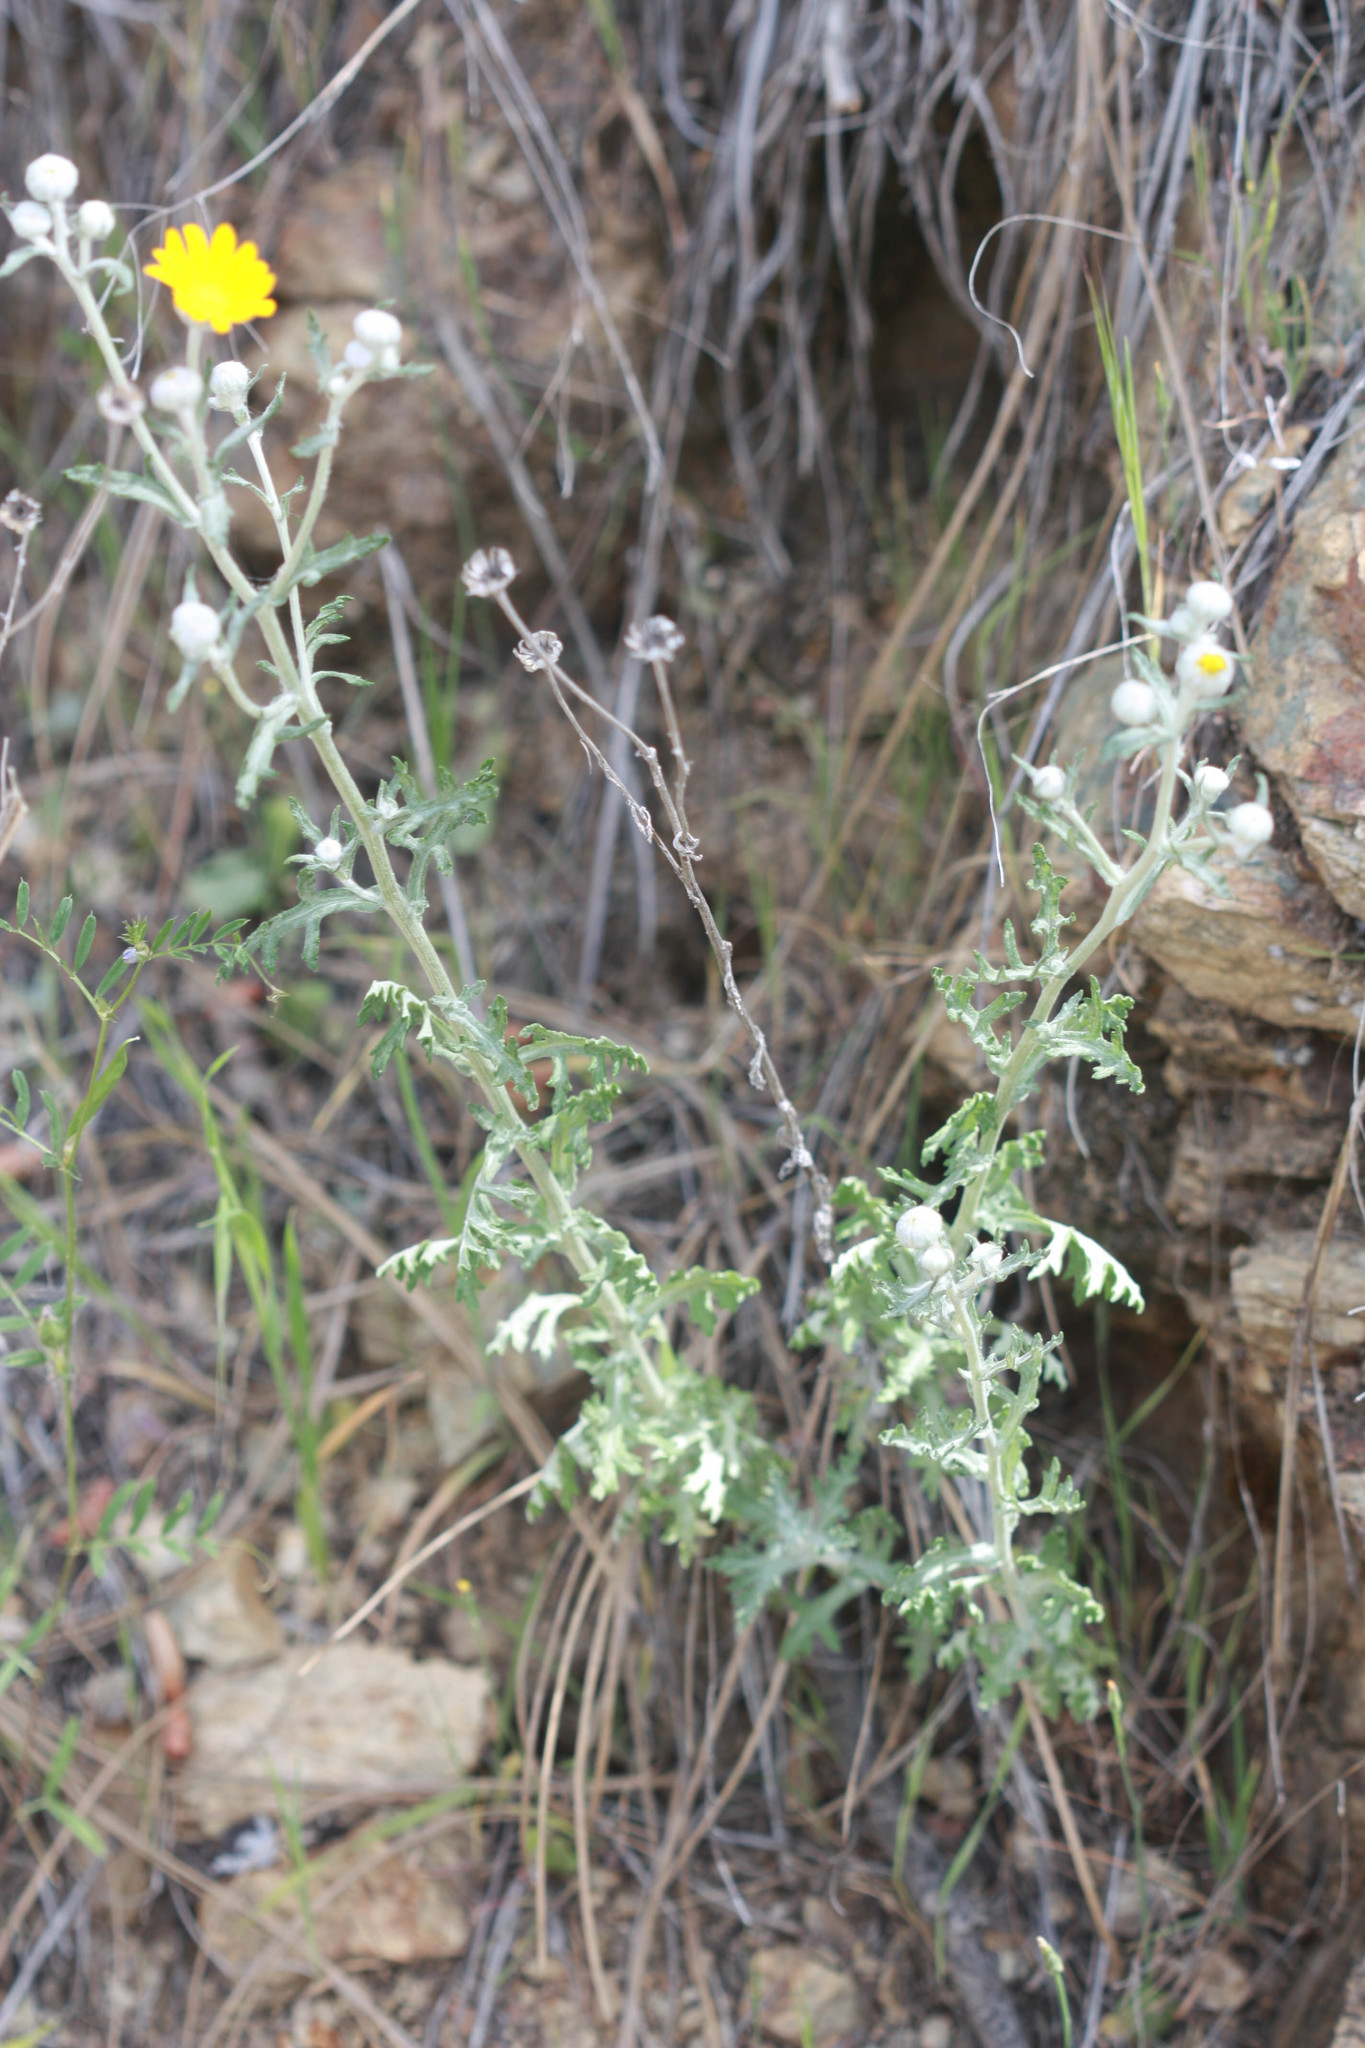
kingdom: Plantae
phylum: Tracheophyta
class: Magnoliopsida
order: Asterales
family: Asteraceae
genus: Eriophyllum
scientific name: Eriophyllum lanatum
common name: Common woolly-sunflower
